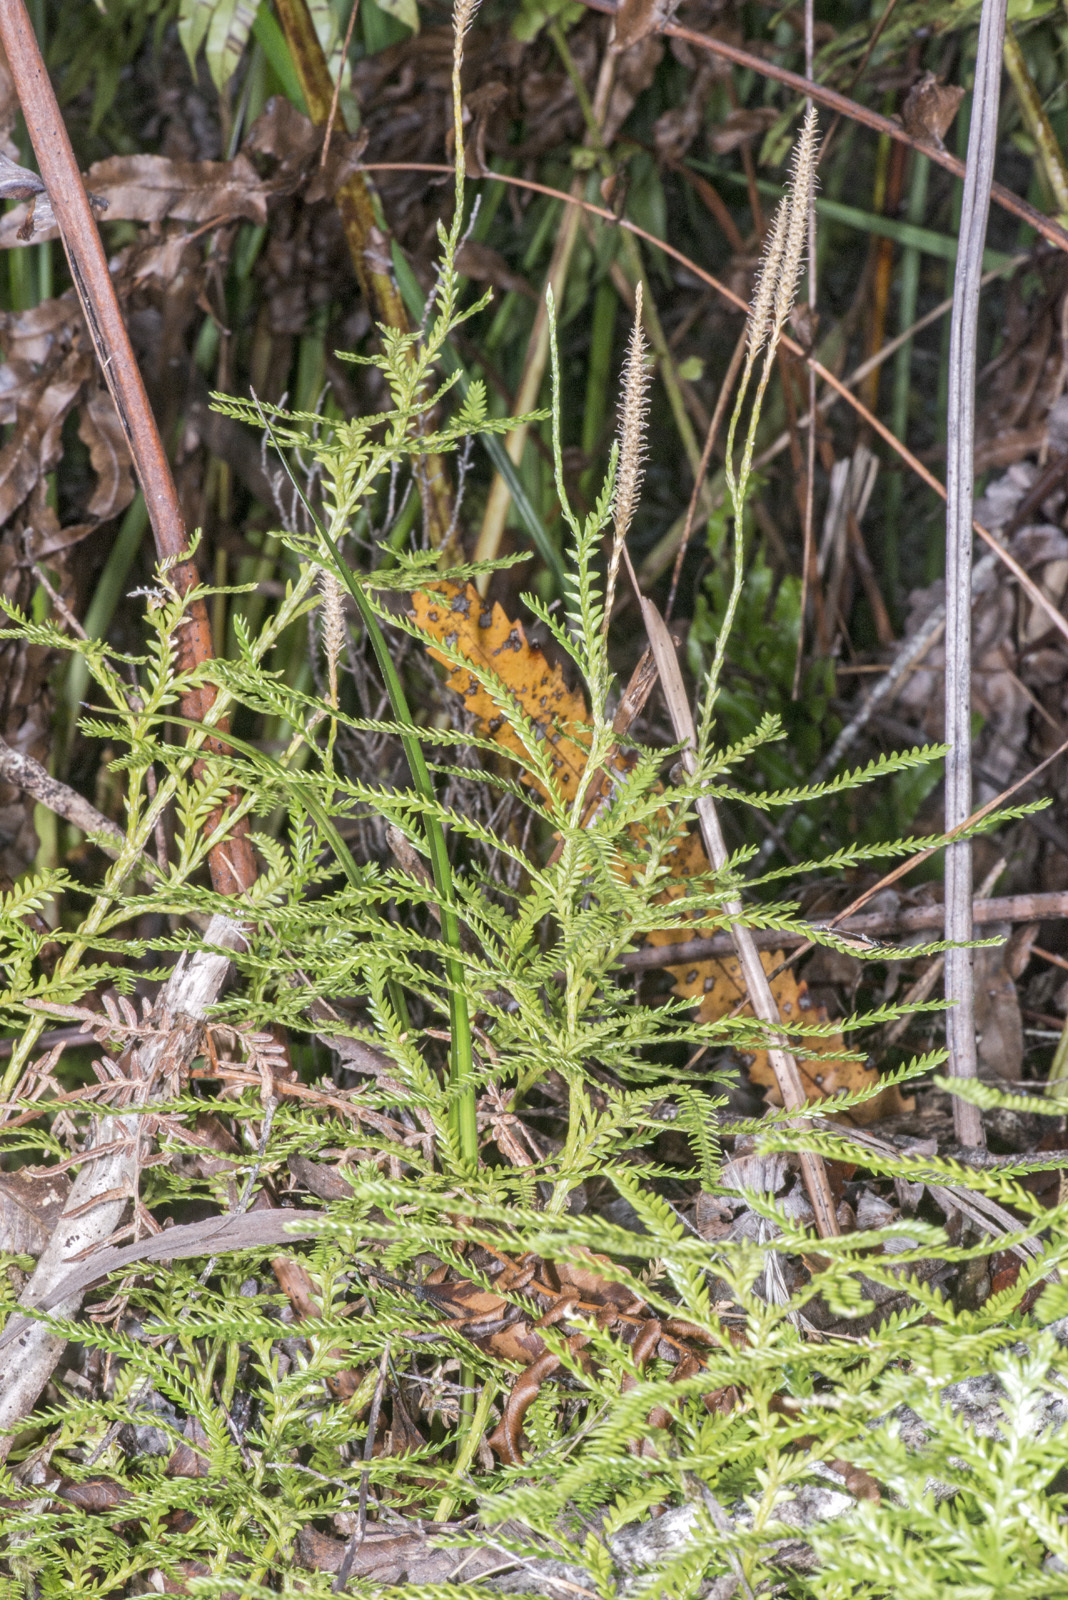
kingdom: Plantae
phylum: Tracheophyta
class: Lycopodiopsida
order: Lycopodiales
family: Lycopodiaceae
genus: Diphasium
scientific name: Diphasium scariosum
